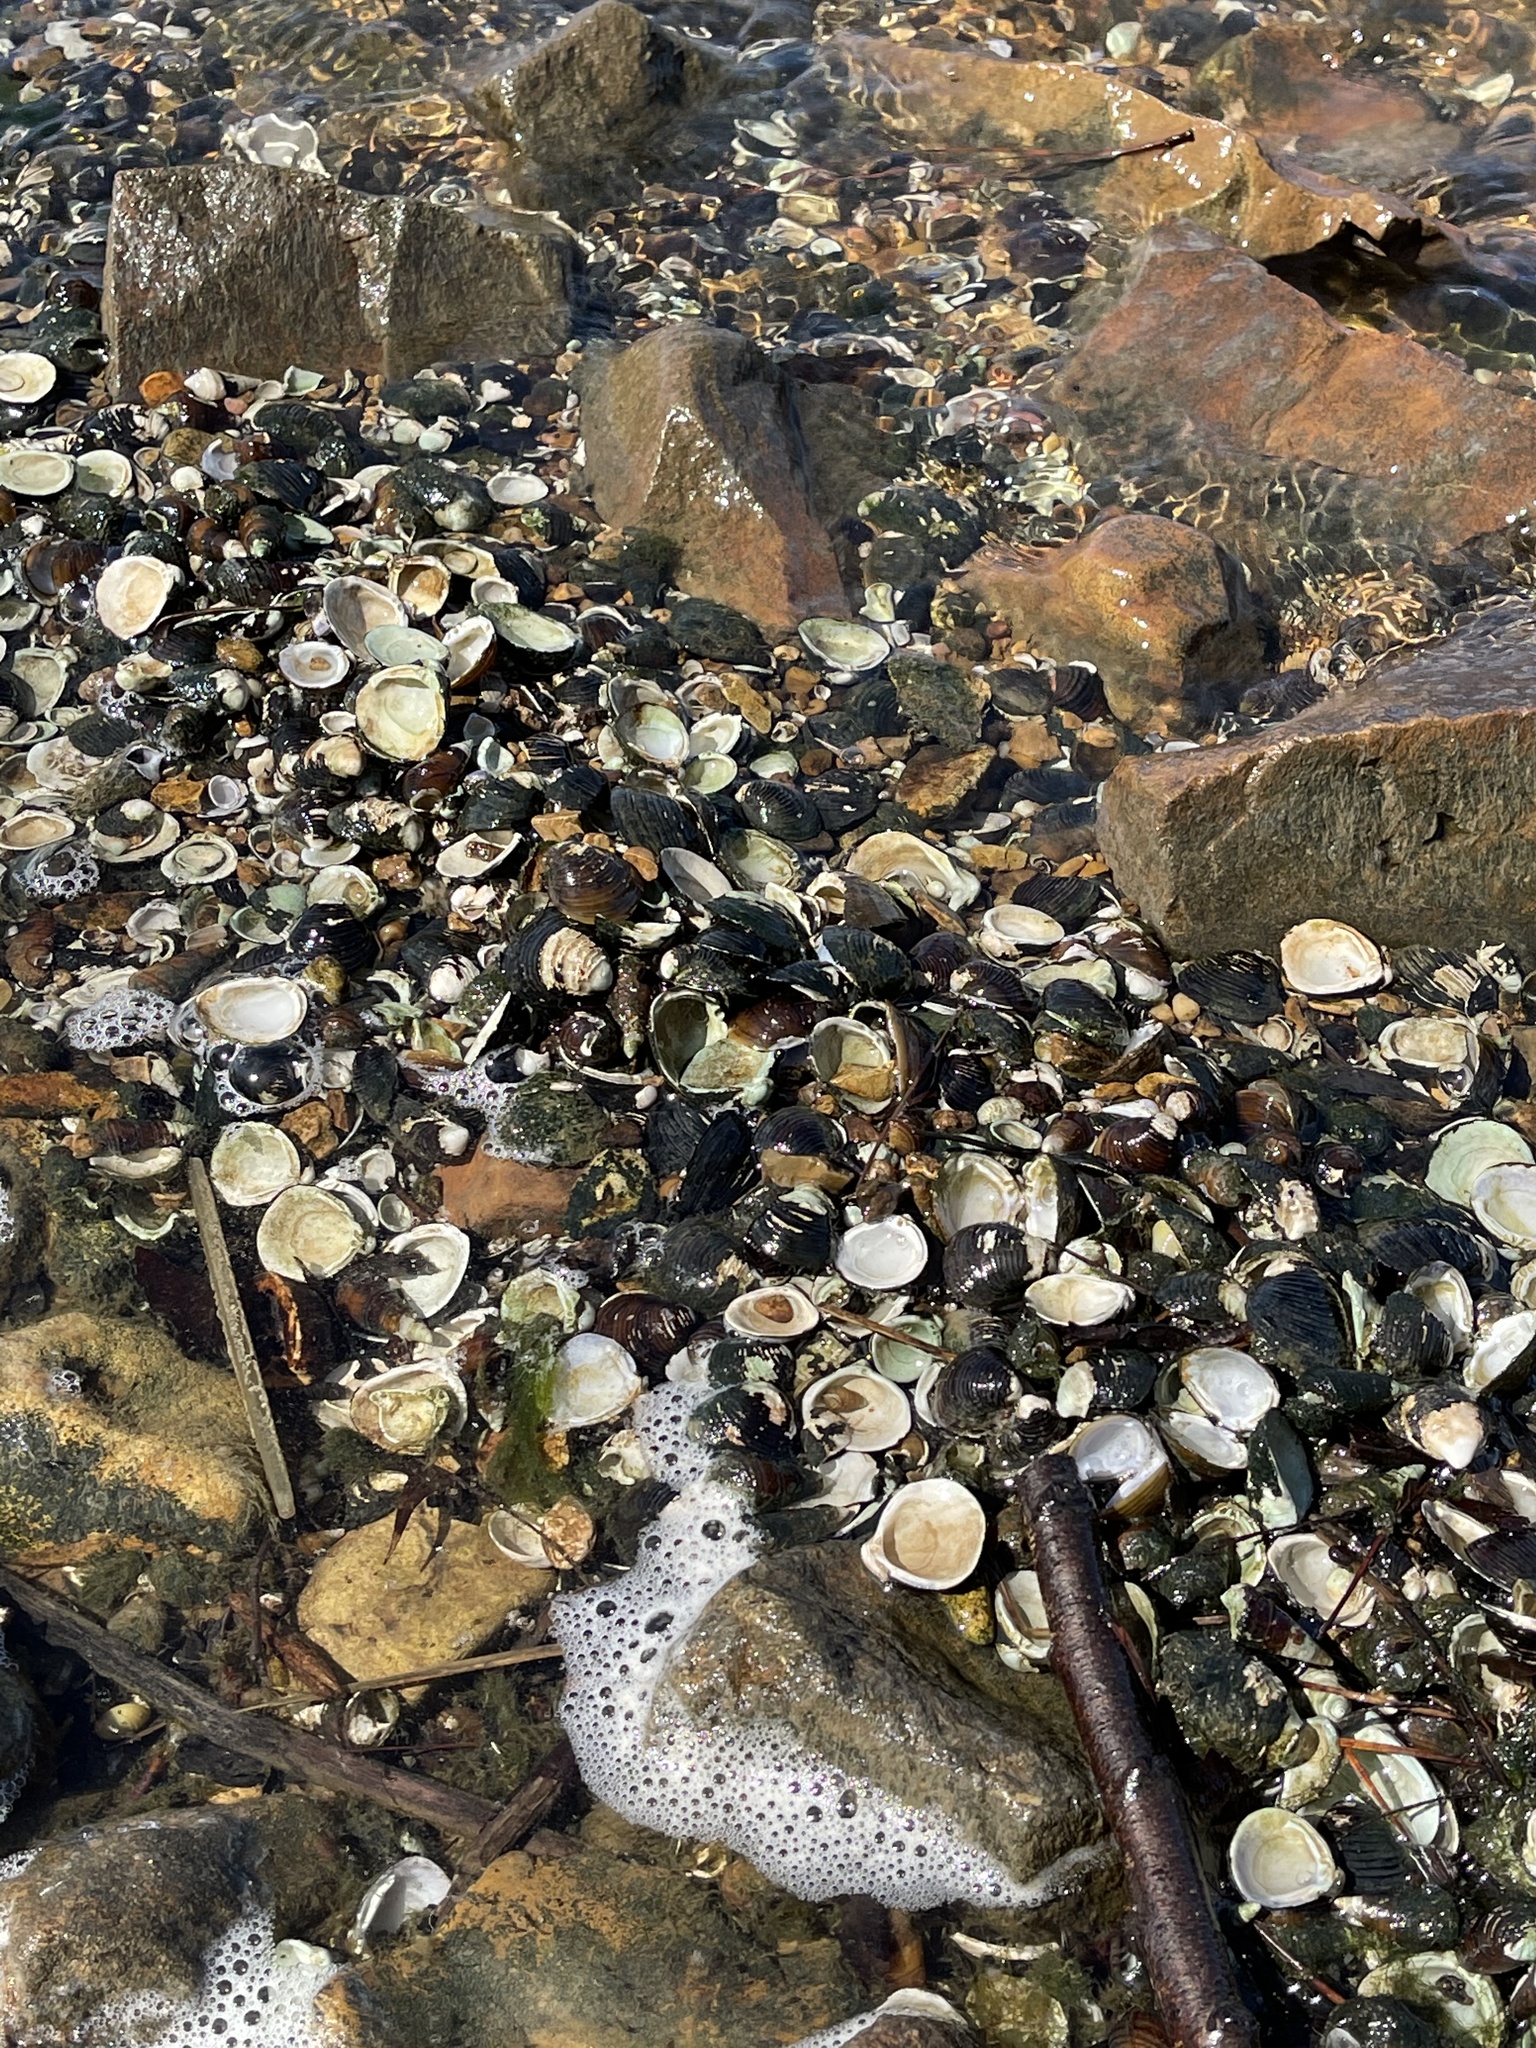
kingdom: Animalia
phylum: Mollusca
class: Bivalvia
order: Venerida
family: Cyrenidae
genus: Corbicula
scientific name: Corbicula fluminea
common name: Asian clam
